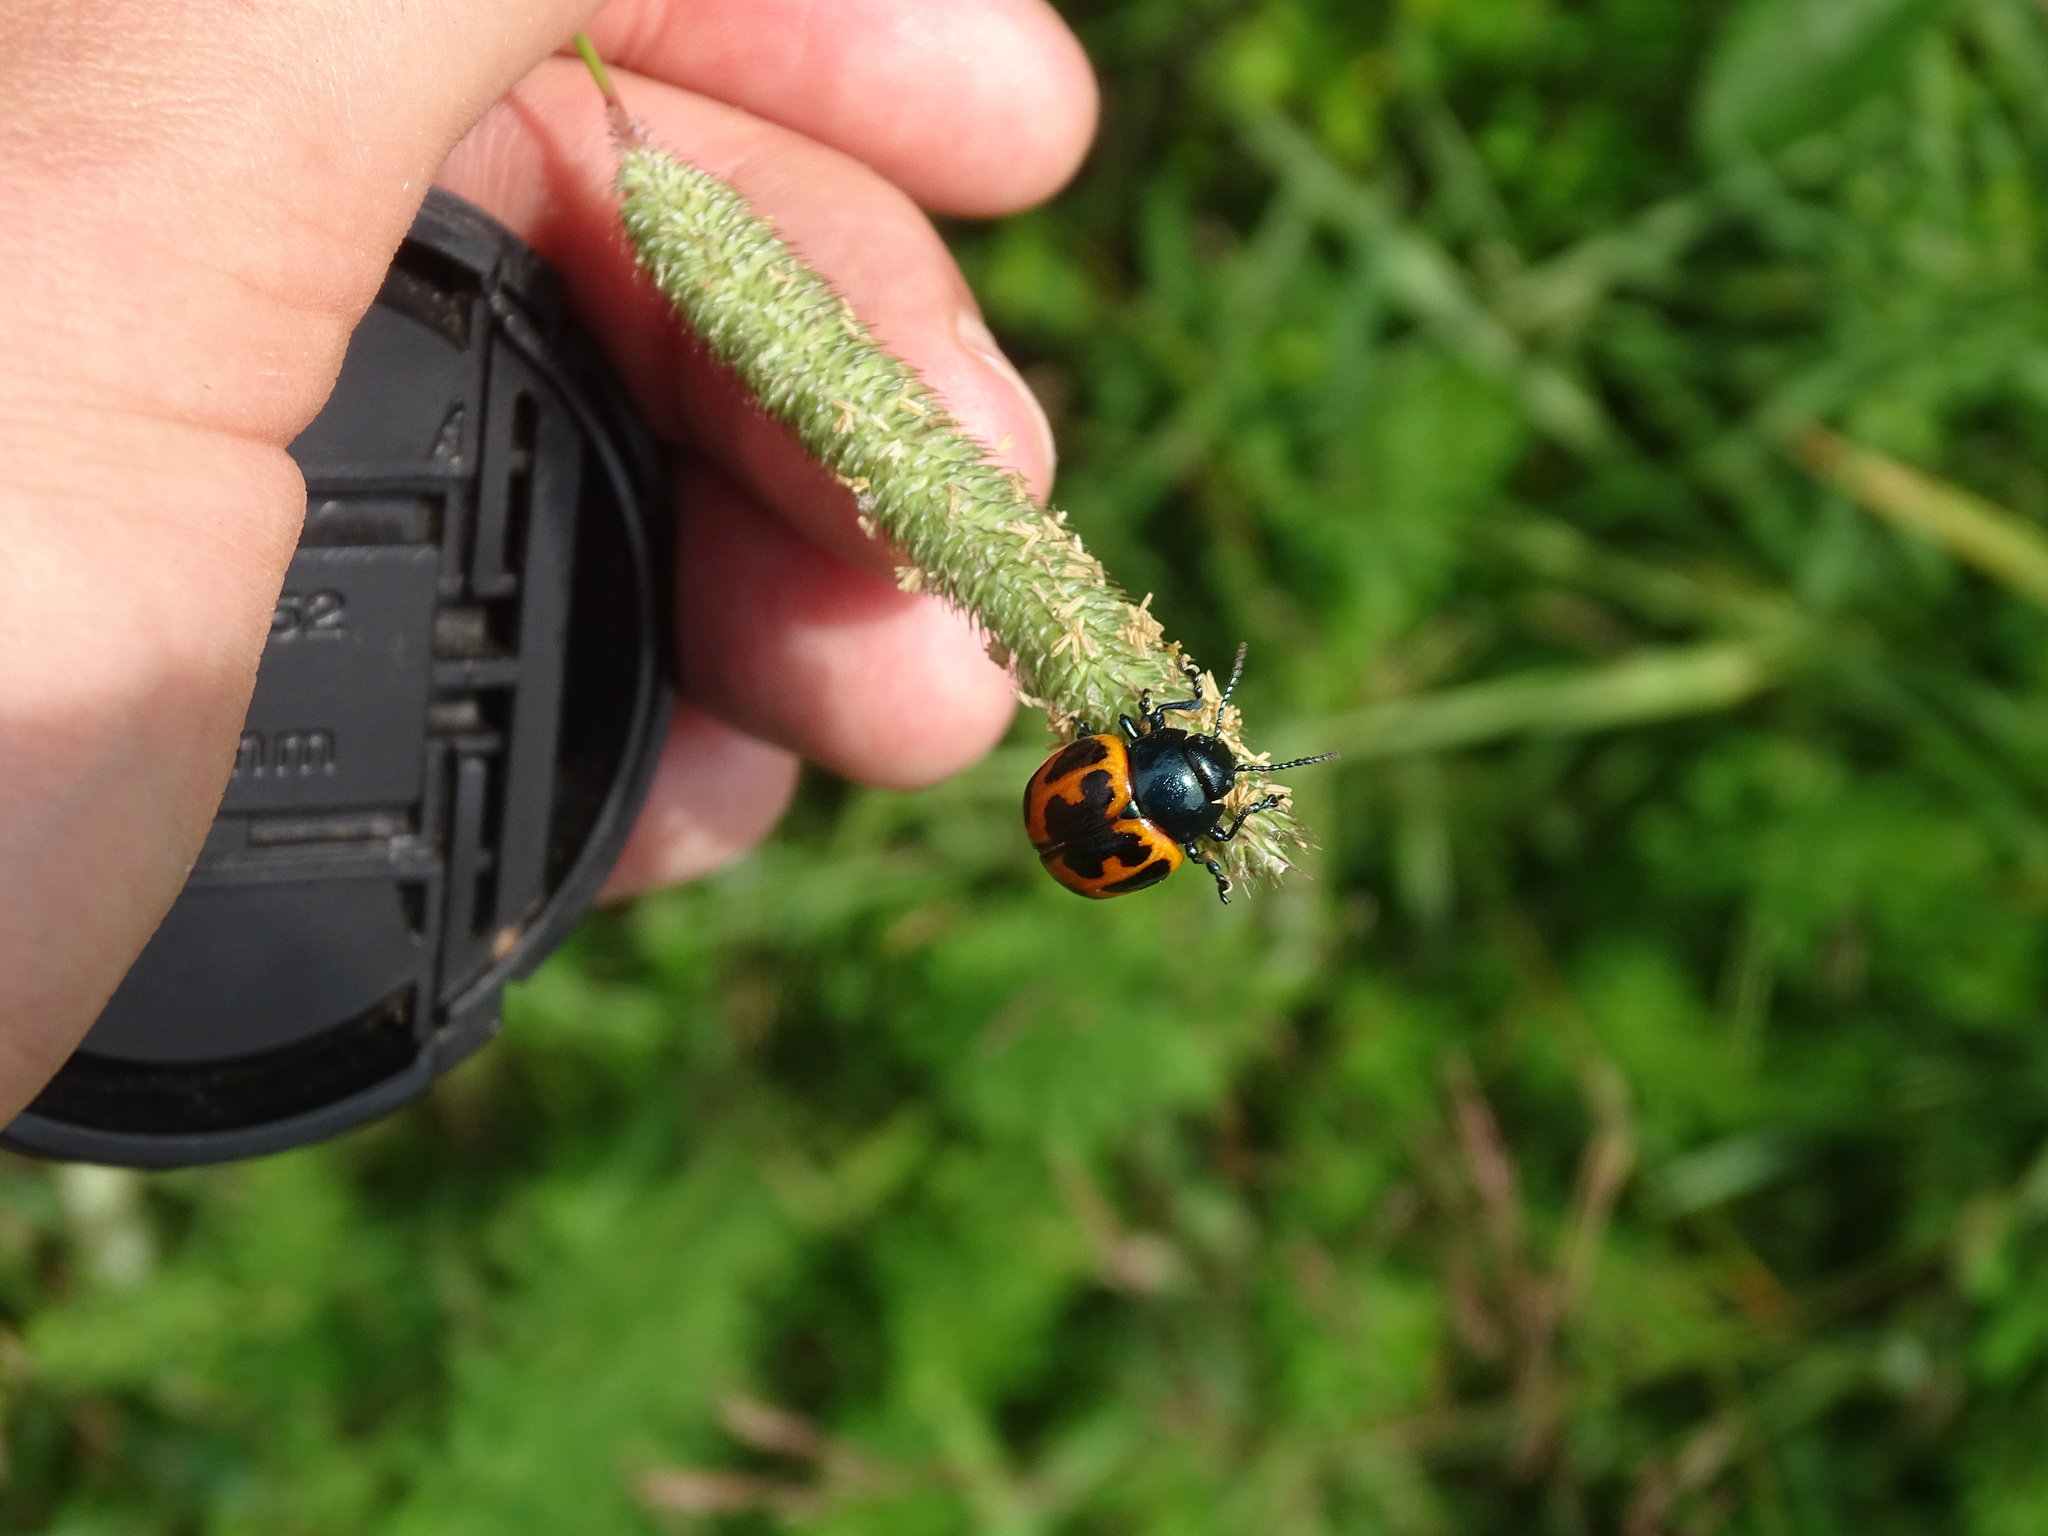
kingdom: Animalia
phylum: Arthropoda
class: Insecta
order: Coleoptera
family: Chrysomelidae
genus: Labidomera
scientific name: Labidomera clivicollis
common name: Swamp milkweed leaf beetle
